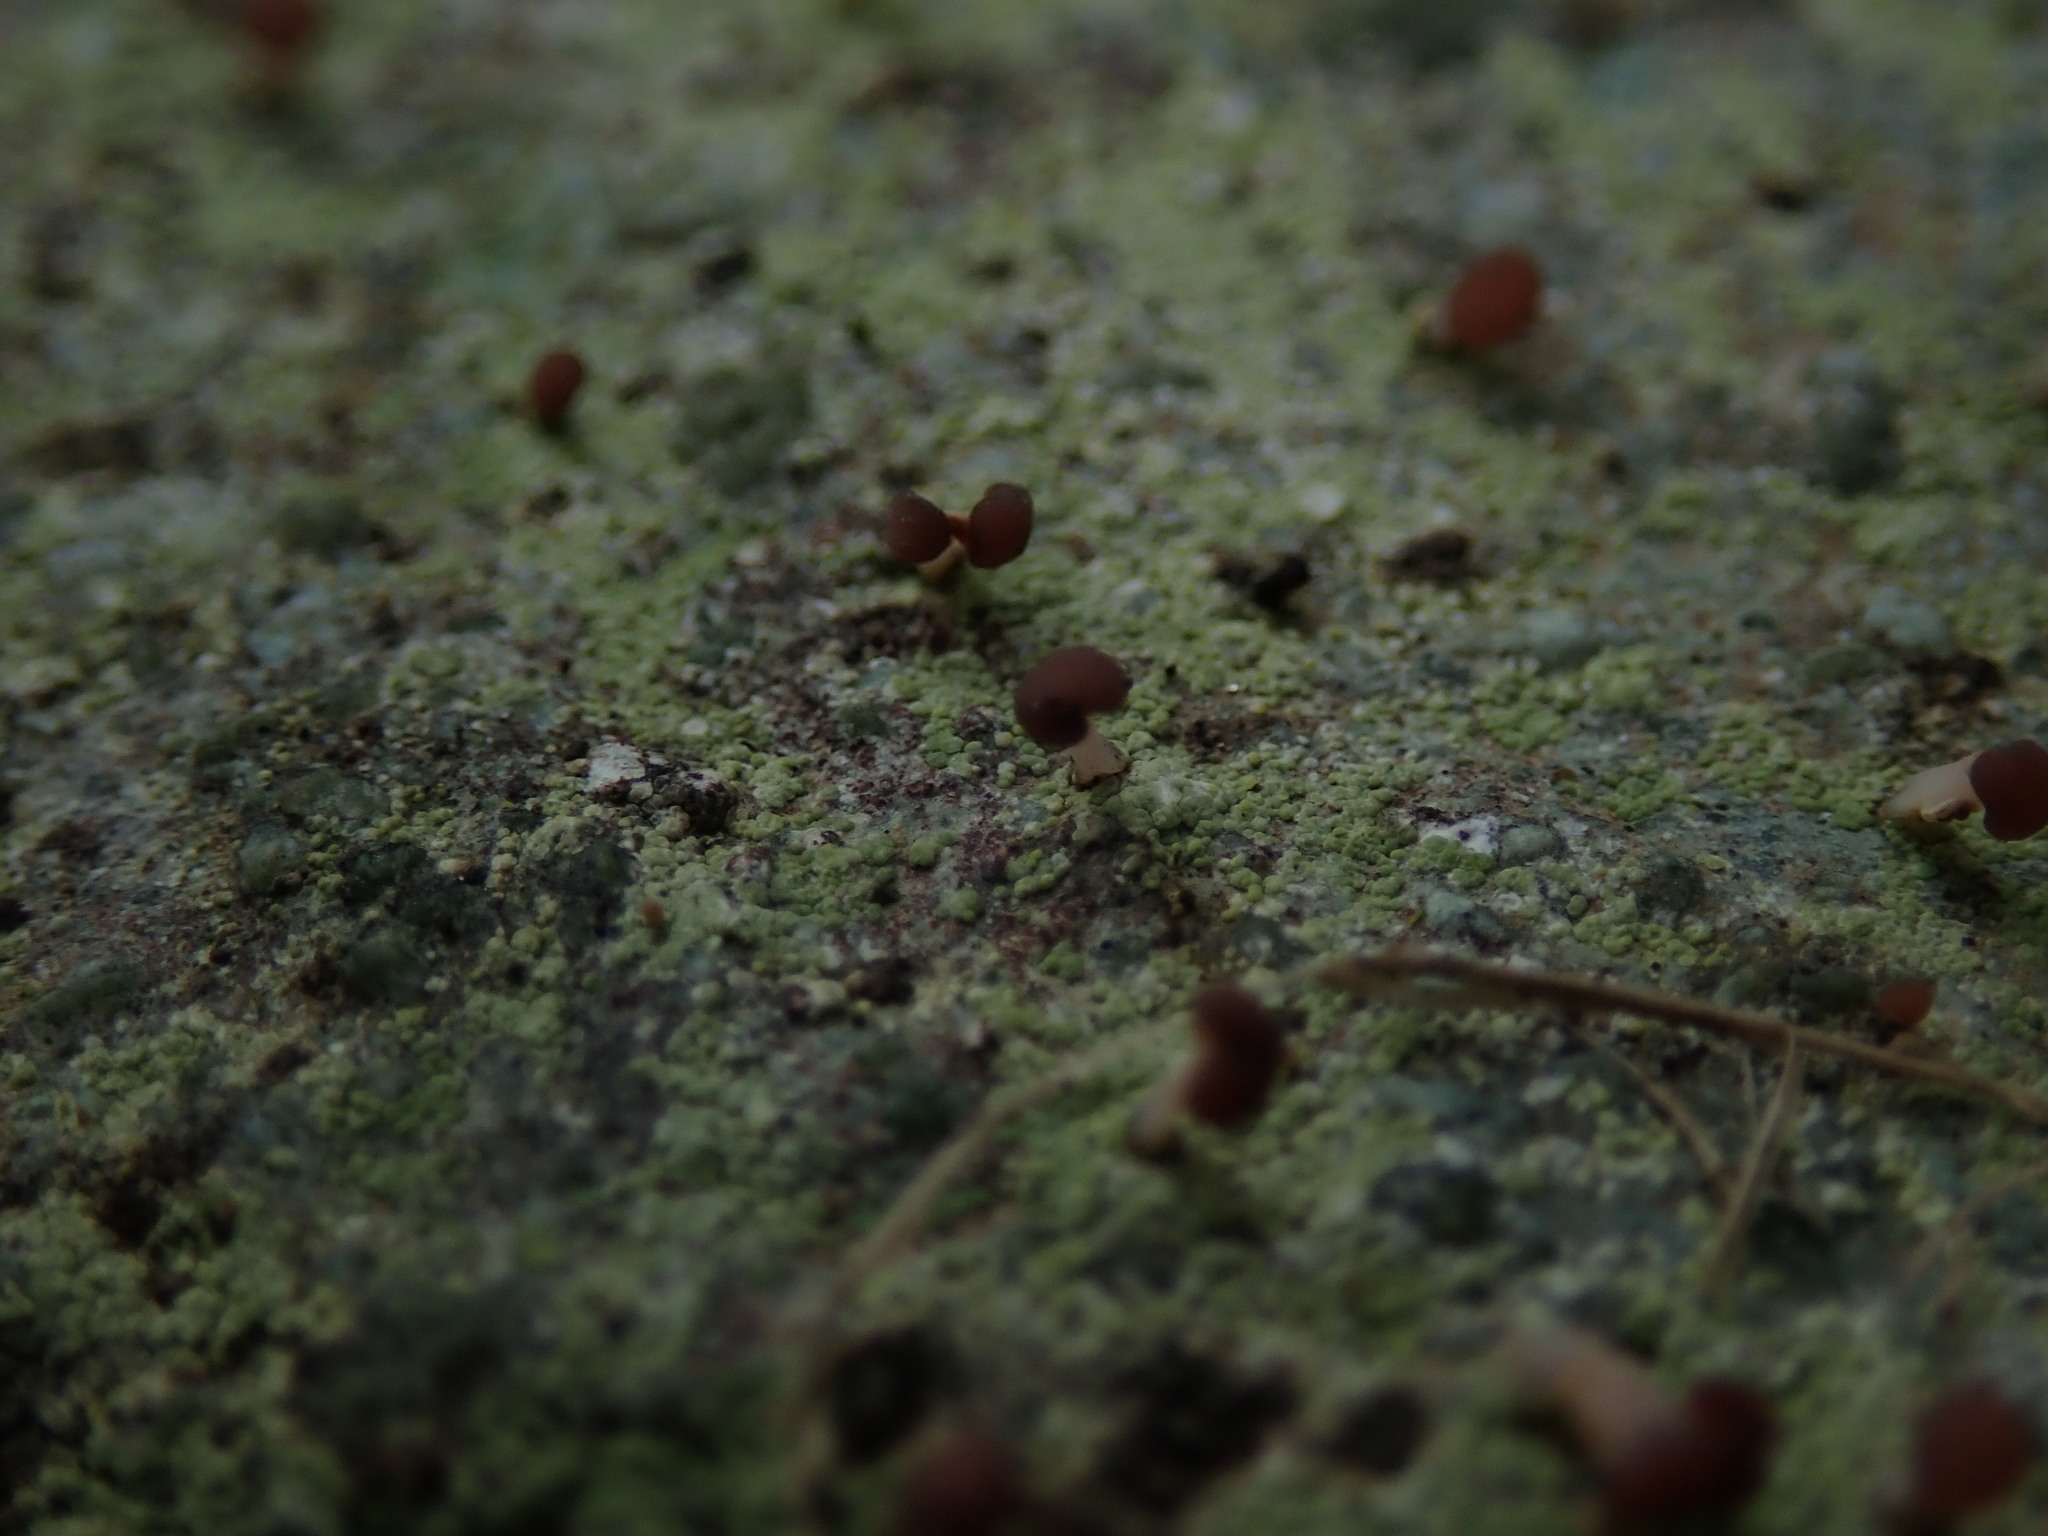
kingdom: Fungi
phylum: Ascomycota
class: Lecanoromycetes
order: Baeomycetales
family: Baeomycetaceae
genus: Baeomyces
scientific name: Baeomyces rufus
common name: Brown beret lichen
